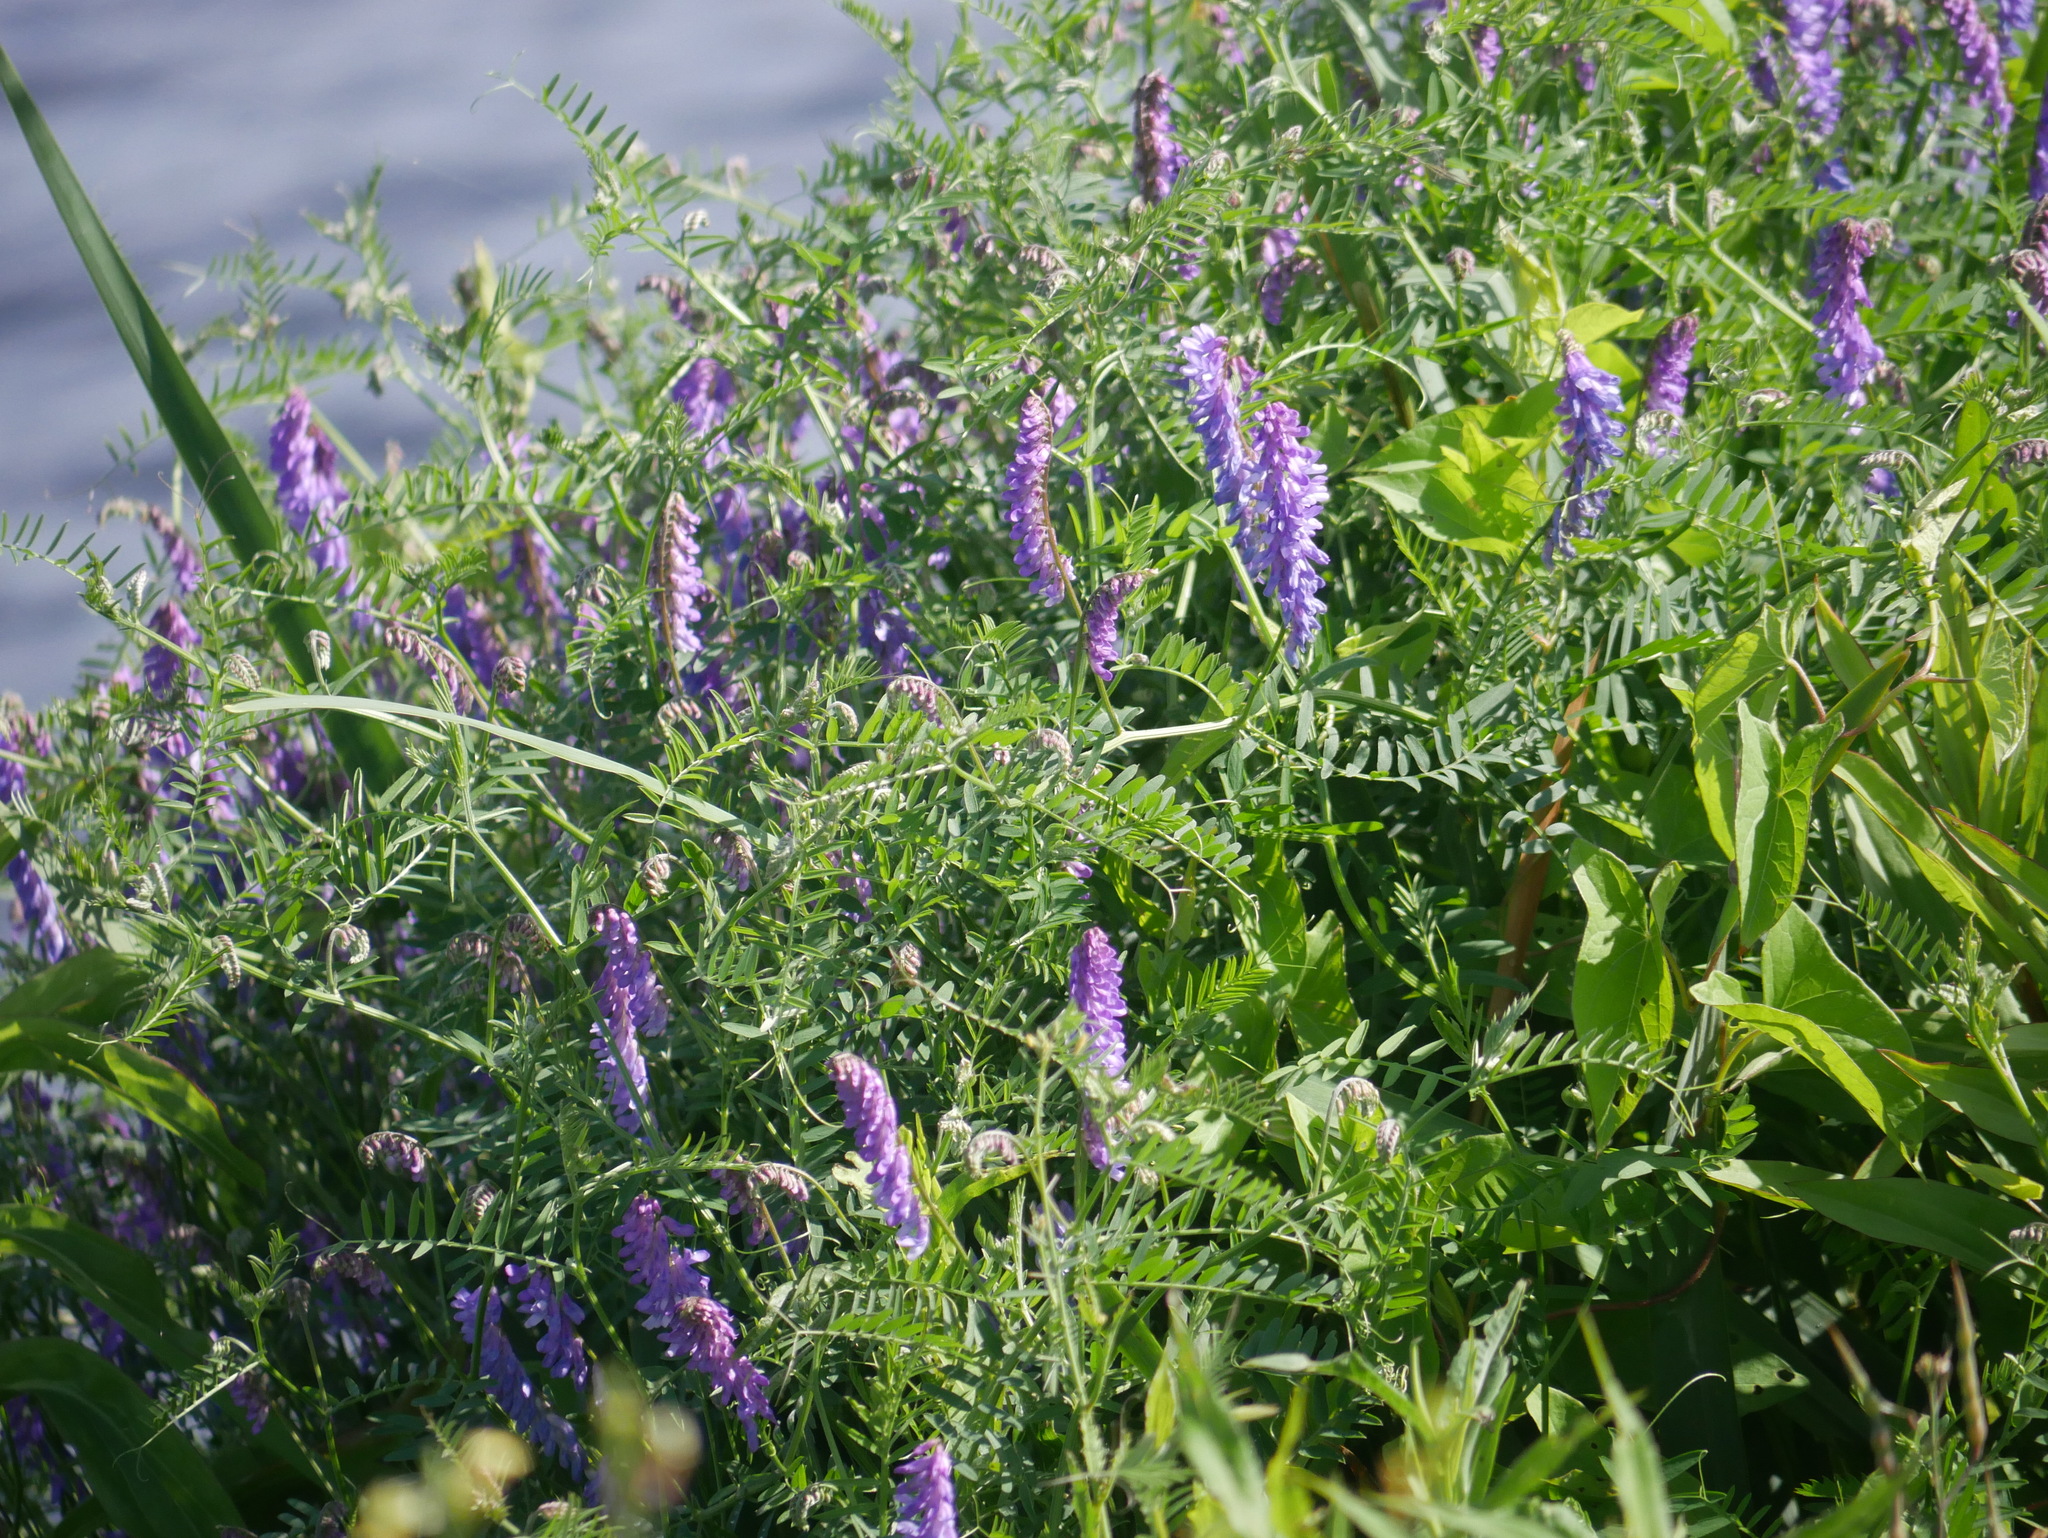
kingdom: Plantae
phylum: Tracheophyta
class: Magnoliopsida
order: Fabales
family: Fabaceae
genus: Vicia
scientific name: Vicia cracca
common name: Bird vetch
